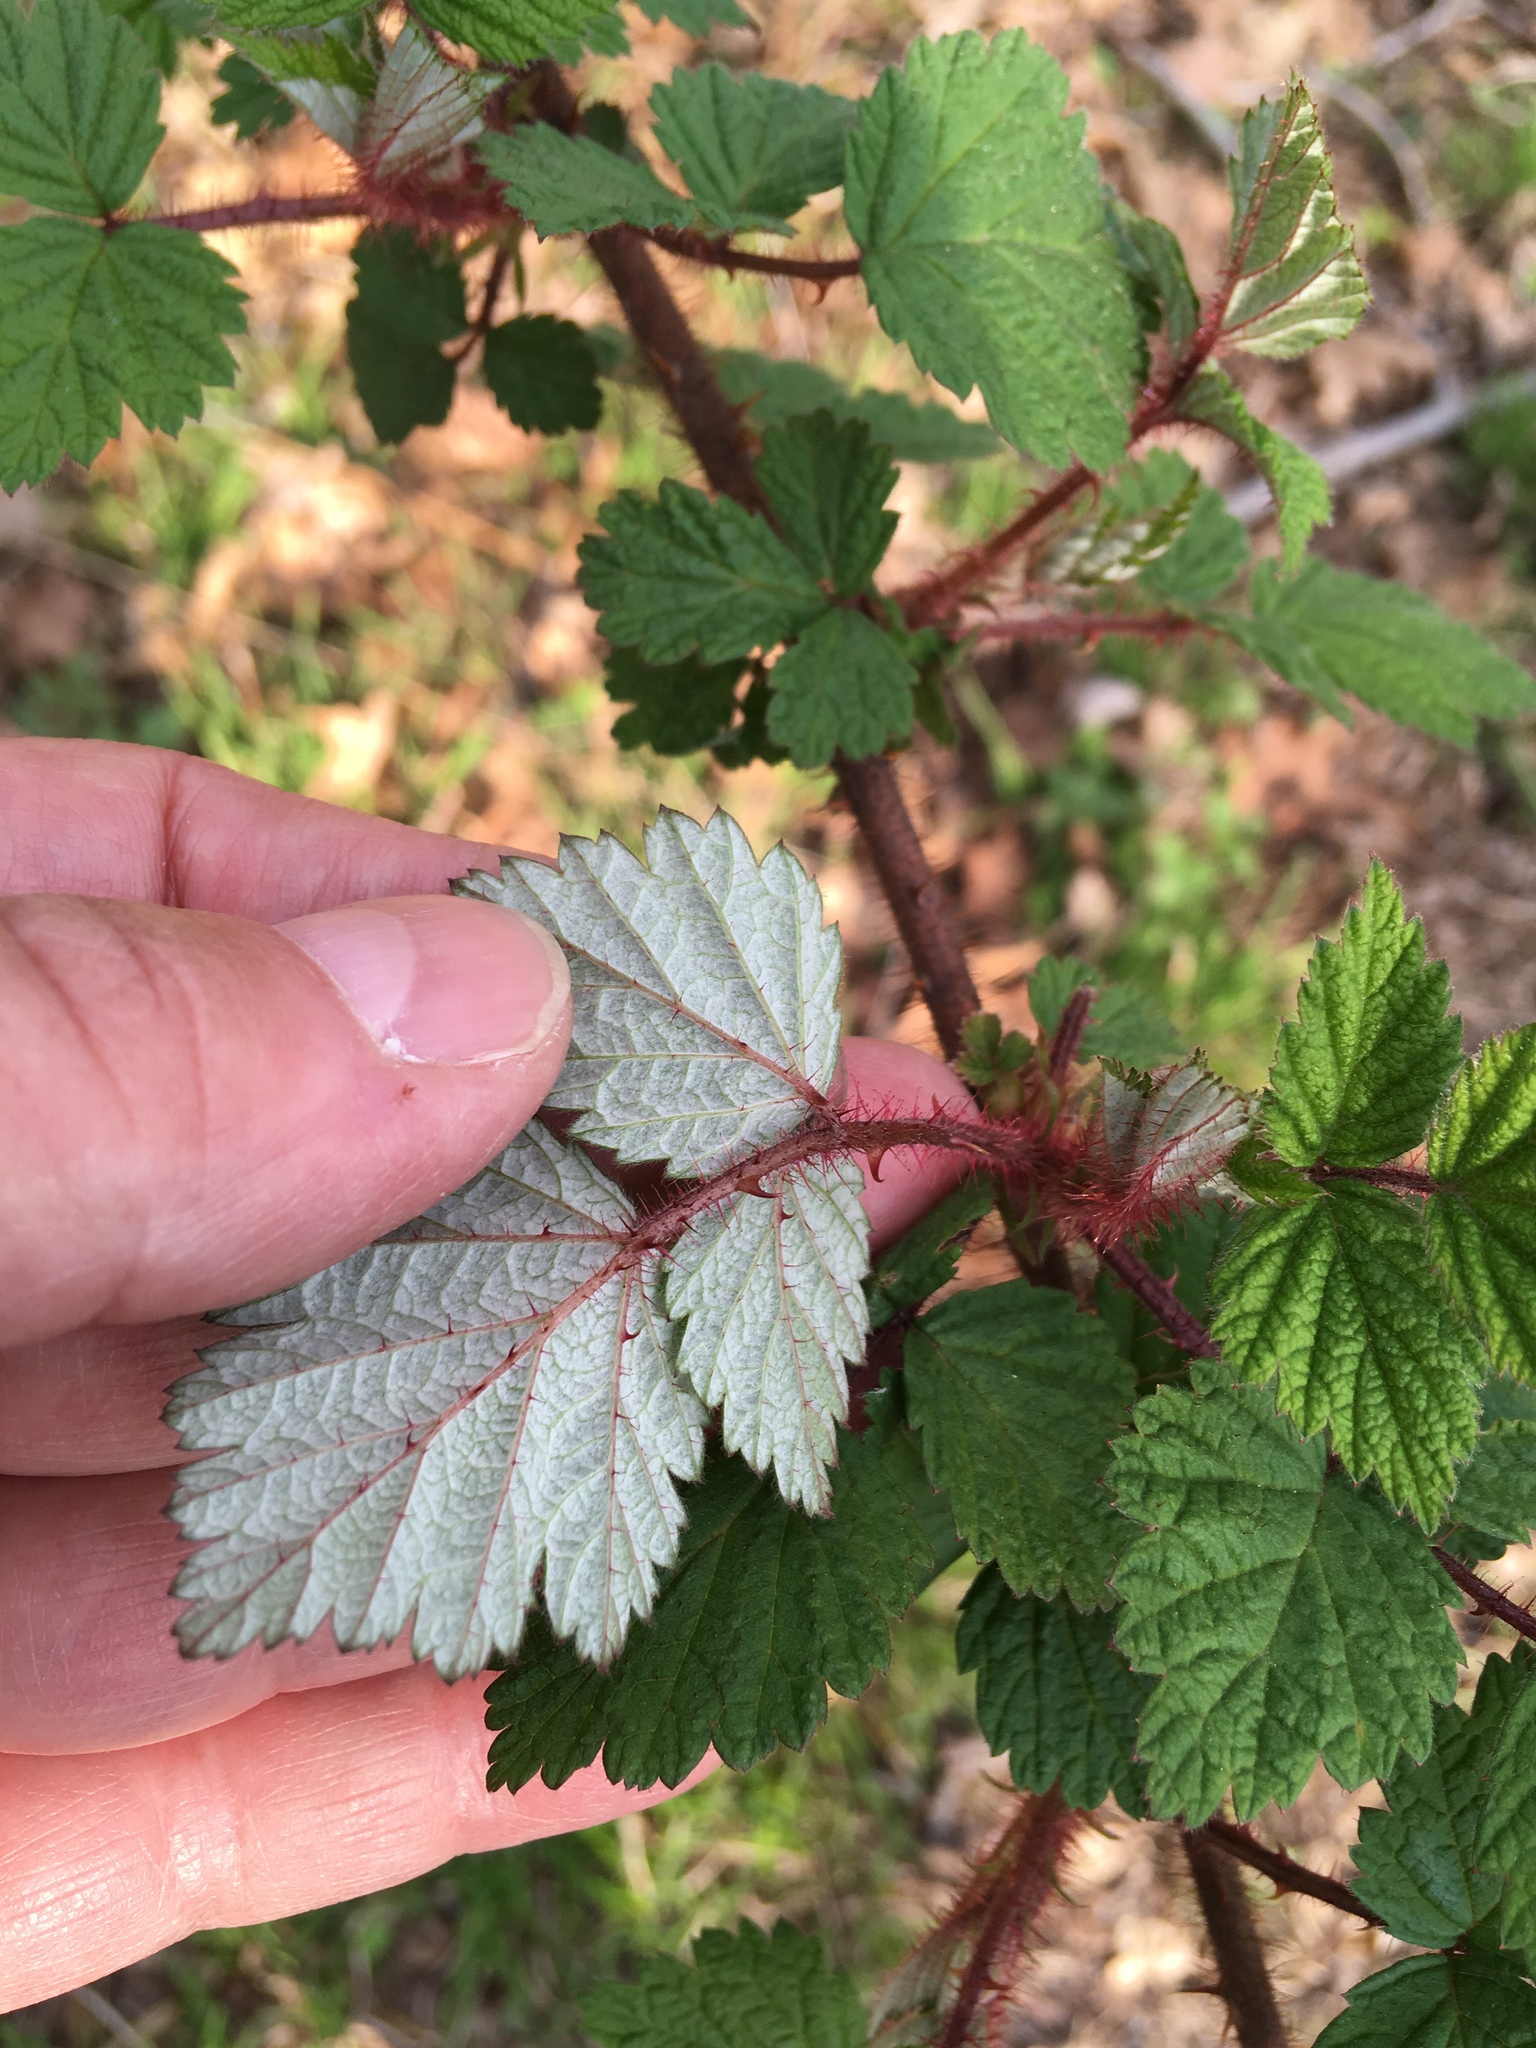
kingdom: Plantae
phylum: Tracheophyta
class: Magnoliopsida
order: Rosales
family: Rosaceae
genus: Rubus
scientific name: Rubus phoenicolasius
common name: Japanese wineberry
